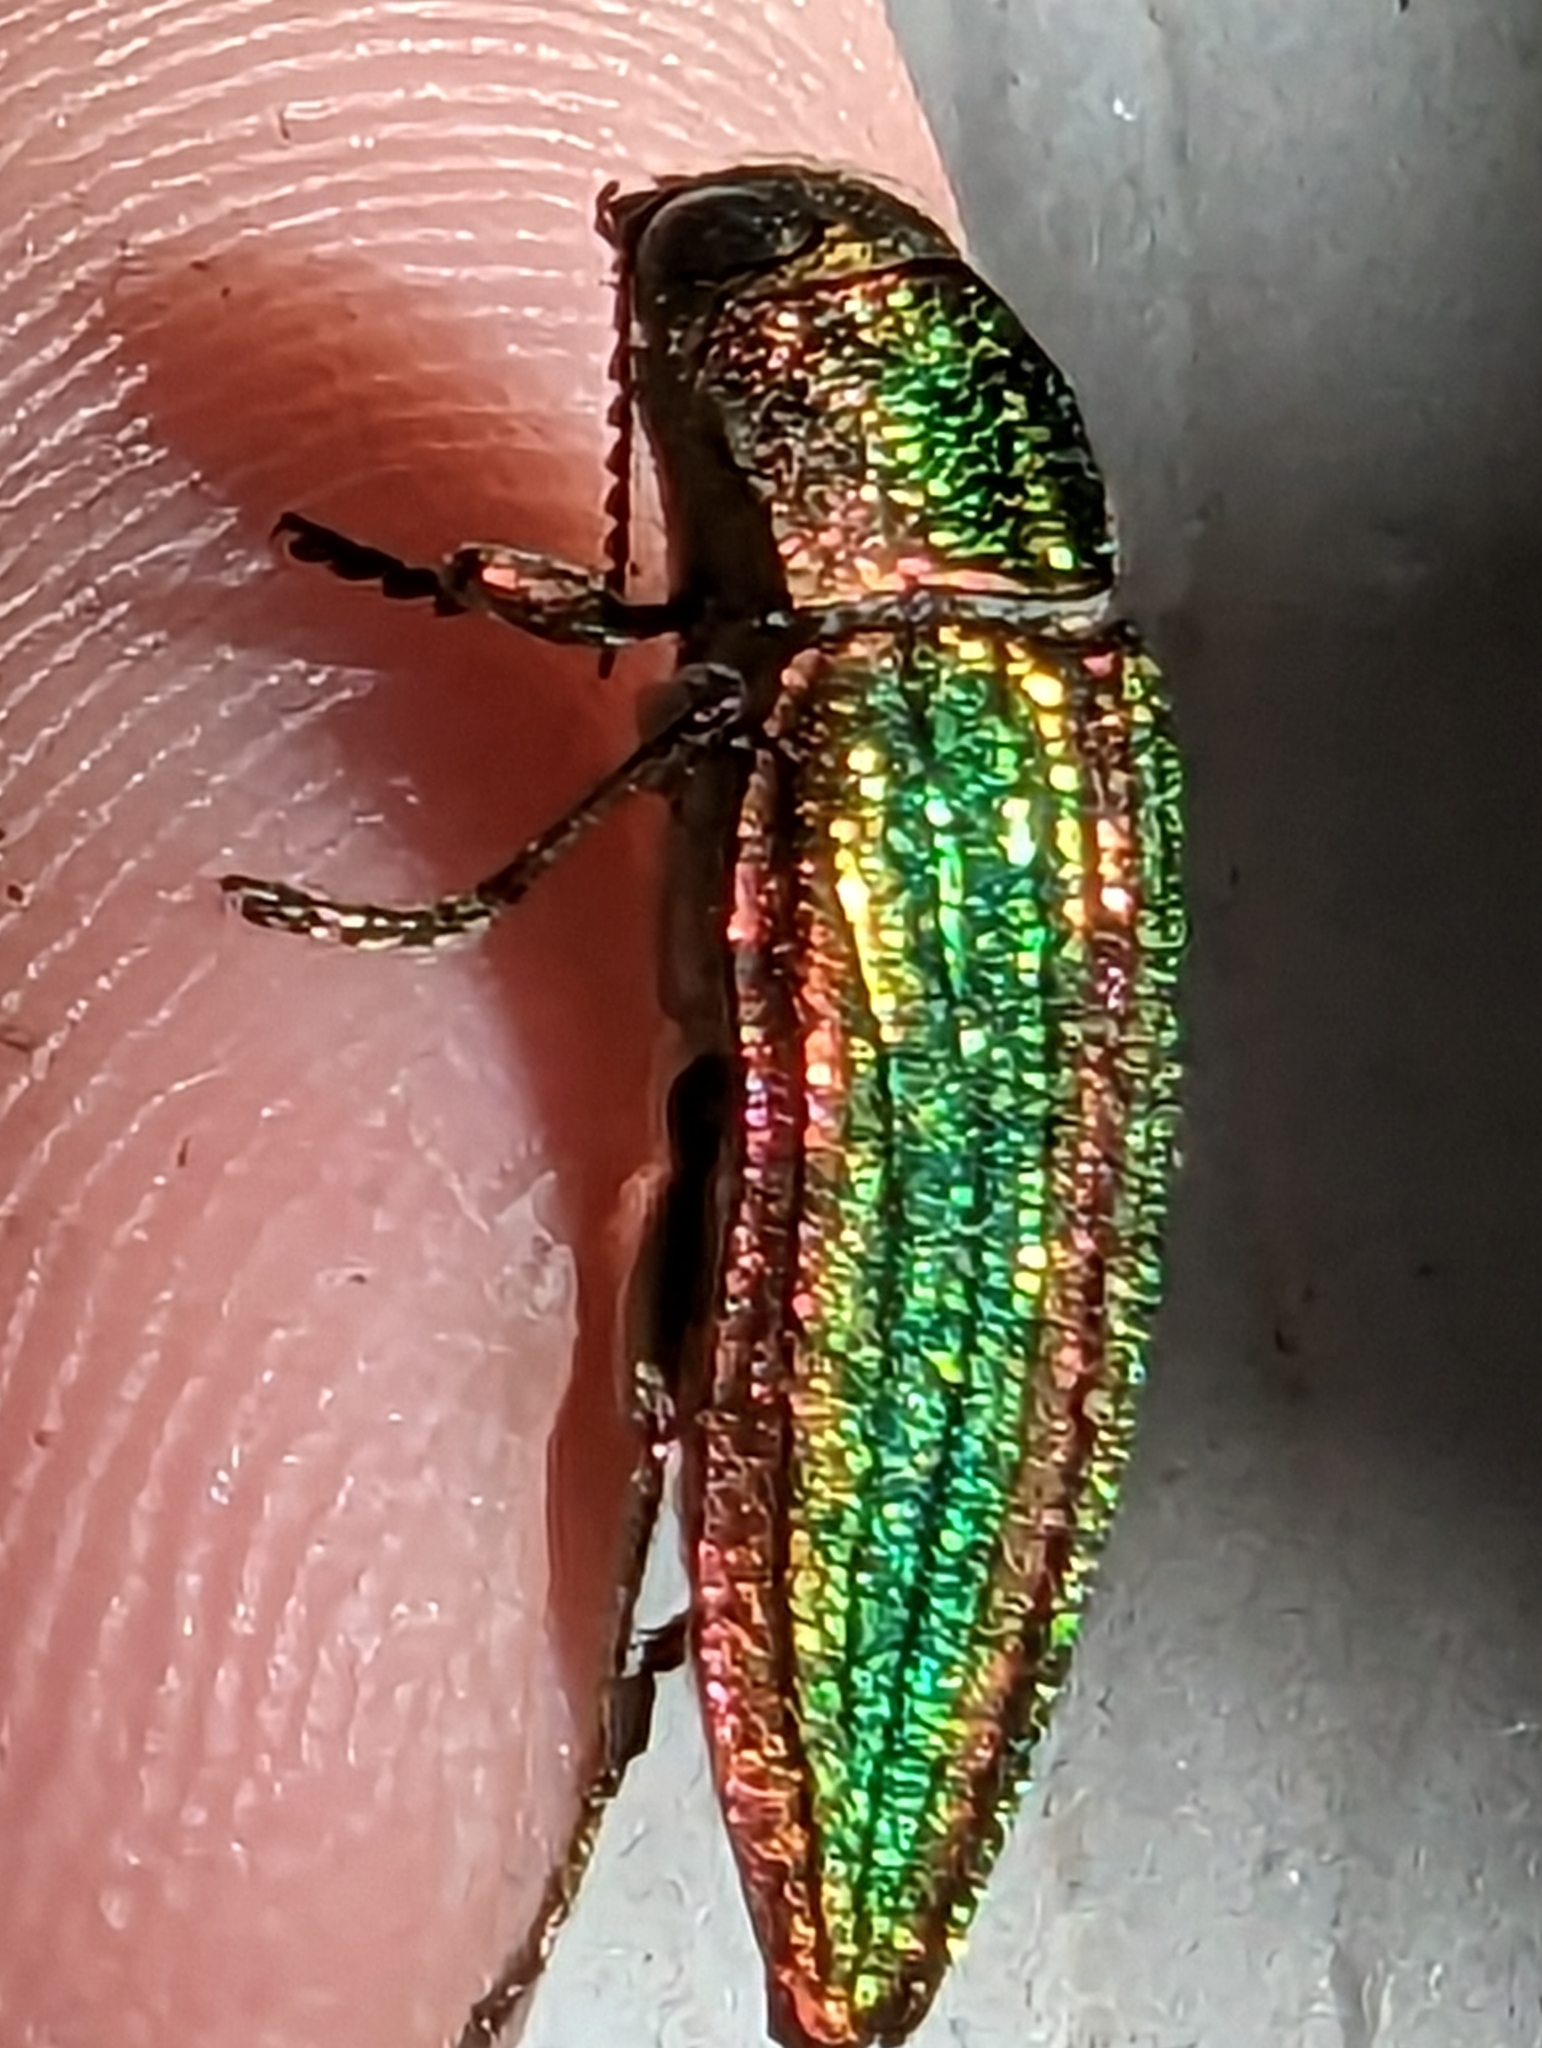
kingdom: Animalia
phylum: Arthropoda
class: Insecta
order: Coleoptera
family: Buprestidae
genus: Buprestis
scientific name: Buprestis aurulenta
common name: Golden buprestid
